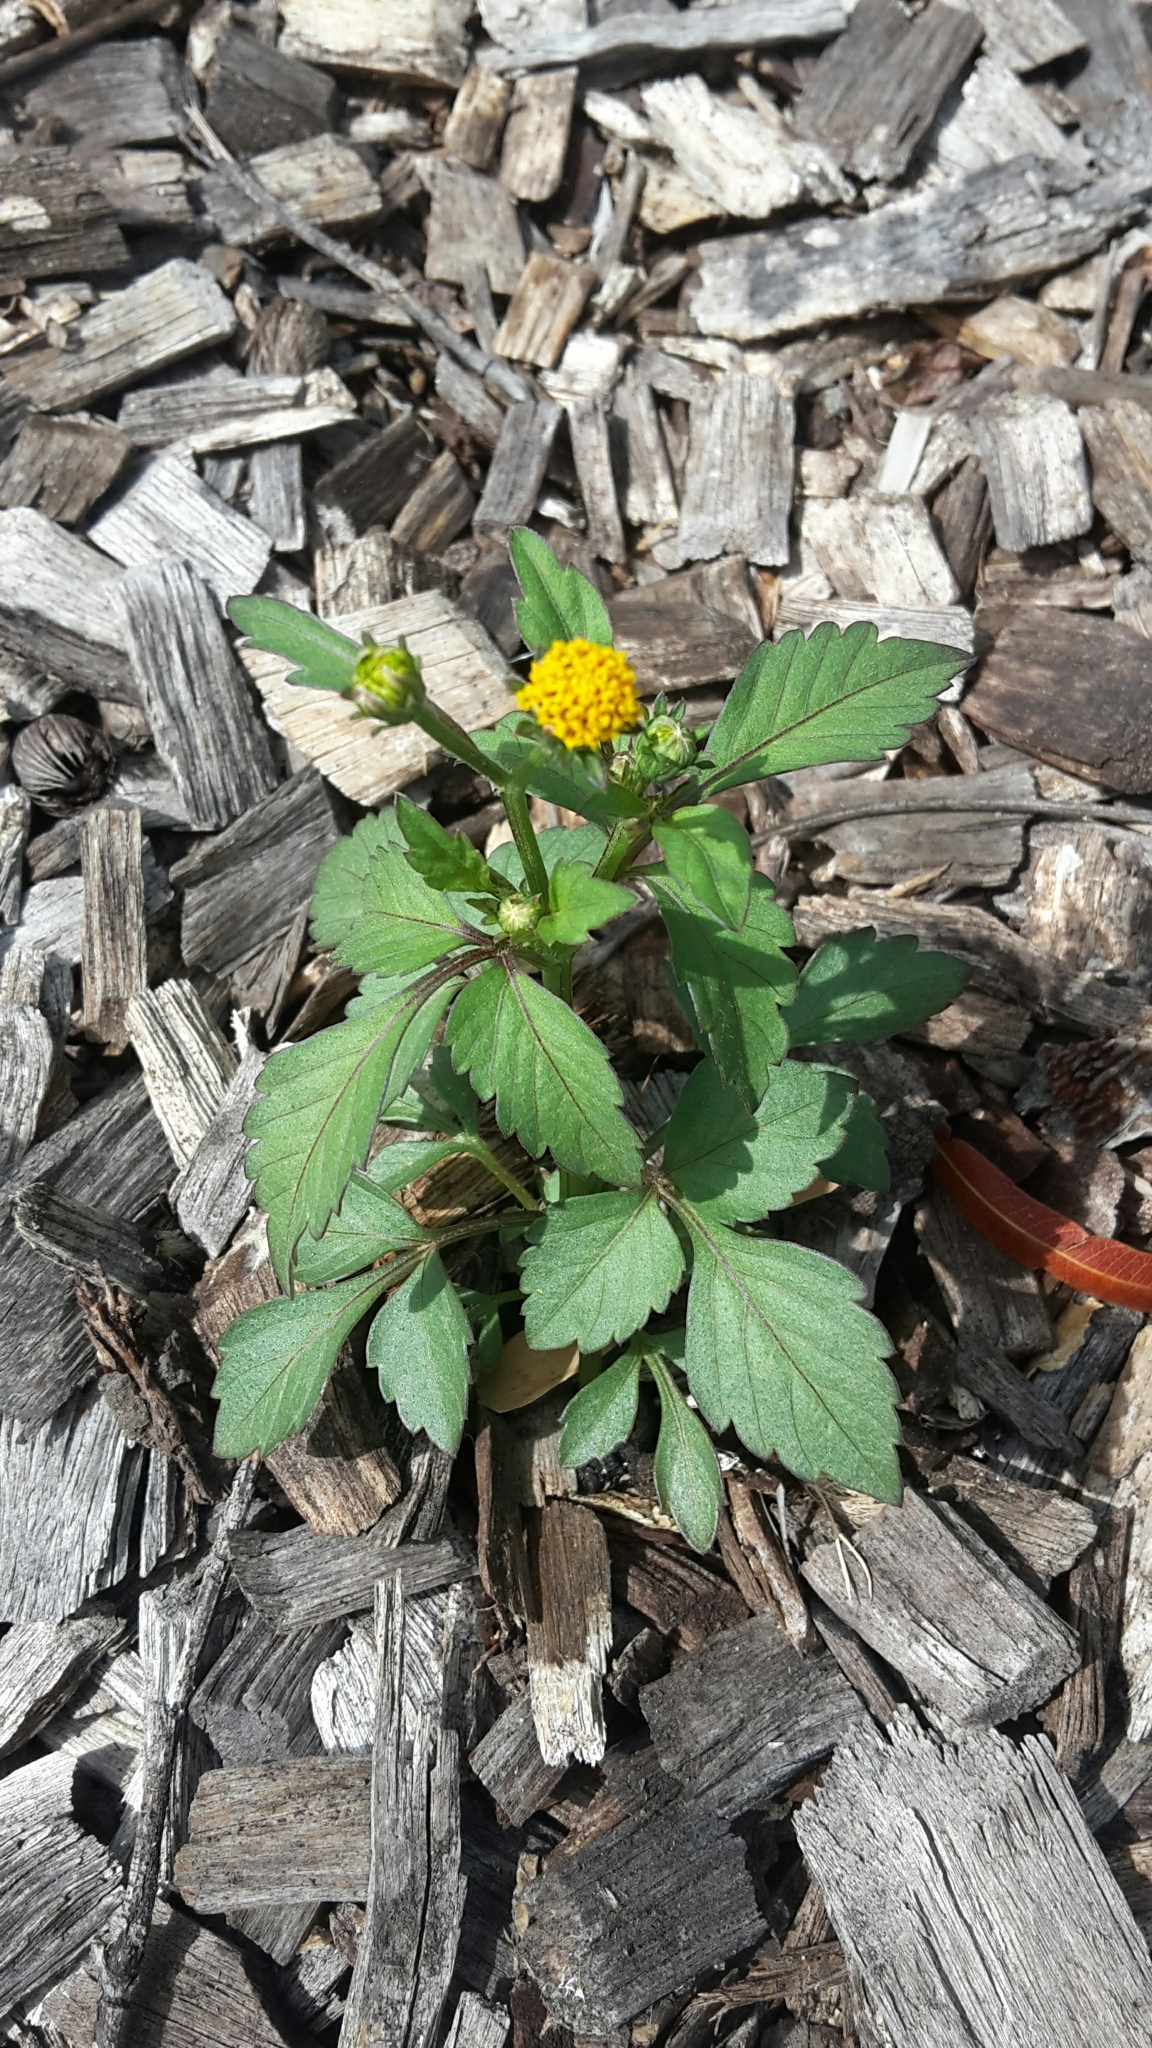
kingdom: Plantae
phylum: Tracheophyta
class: Magnoliopsida
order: Asterales
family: Asteraceae
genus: Bidens
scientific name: Bidens pilosa
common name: Black-jack
